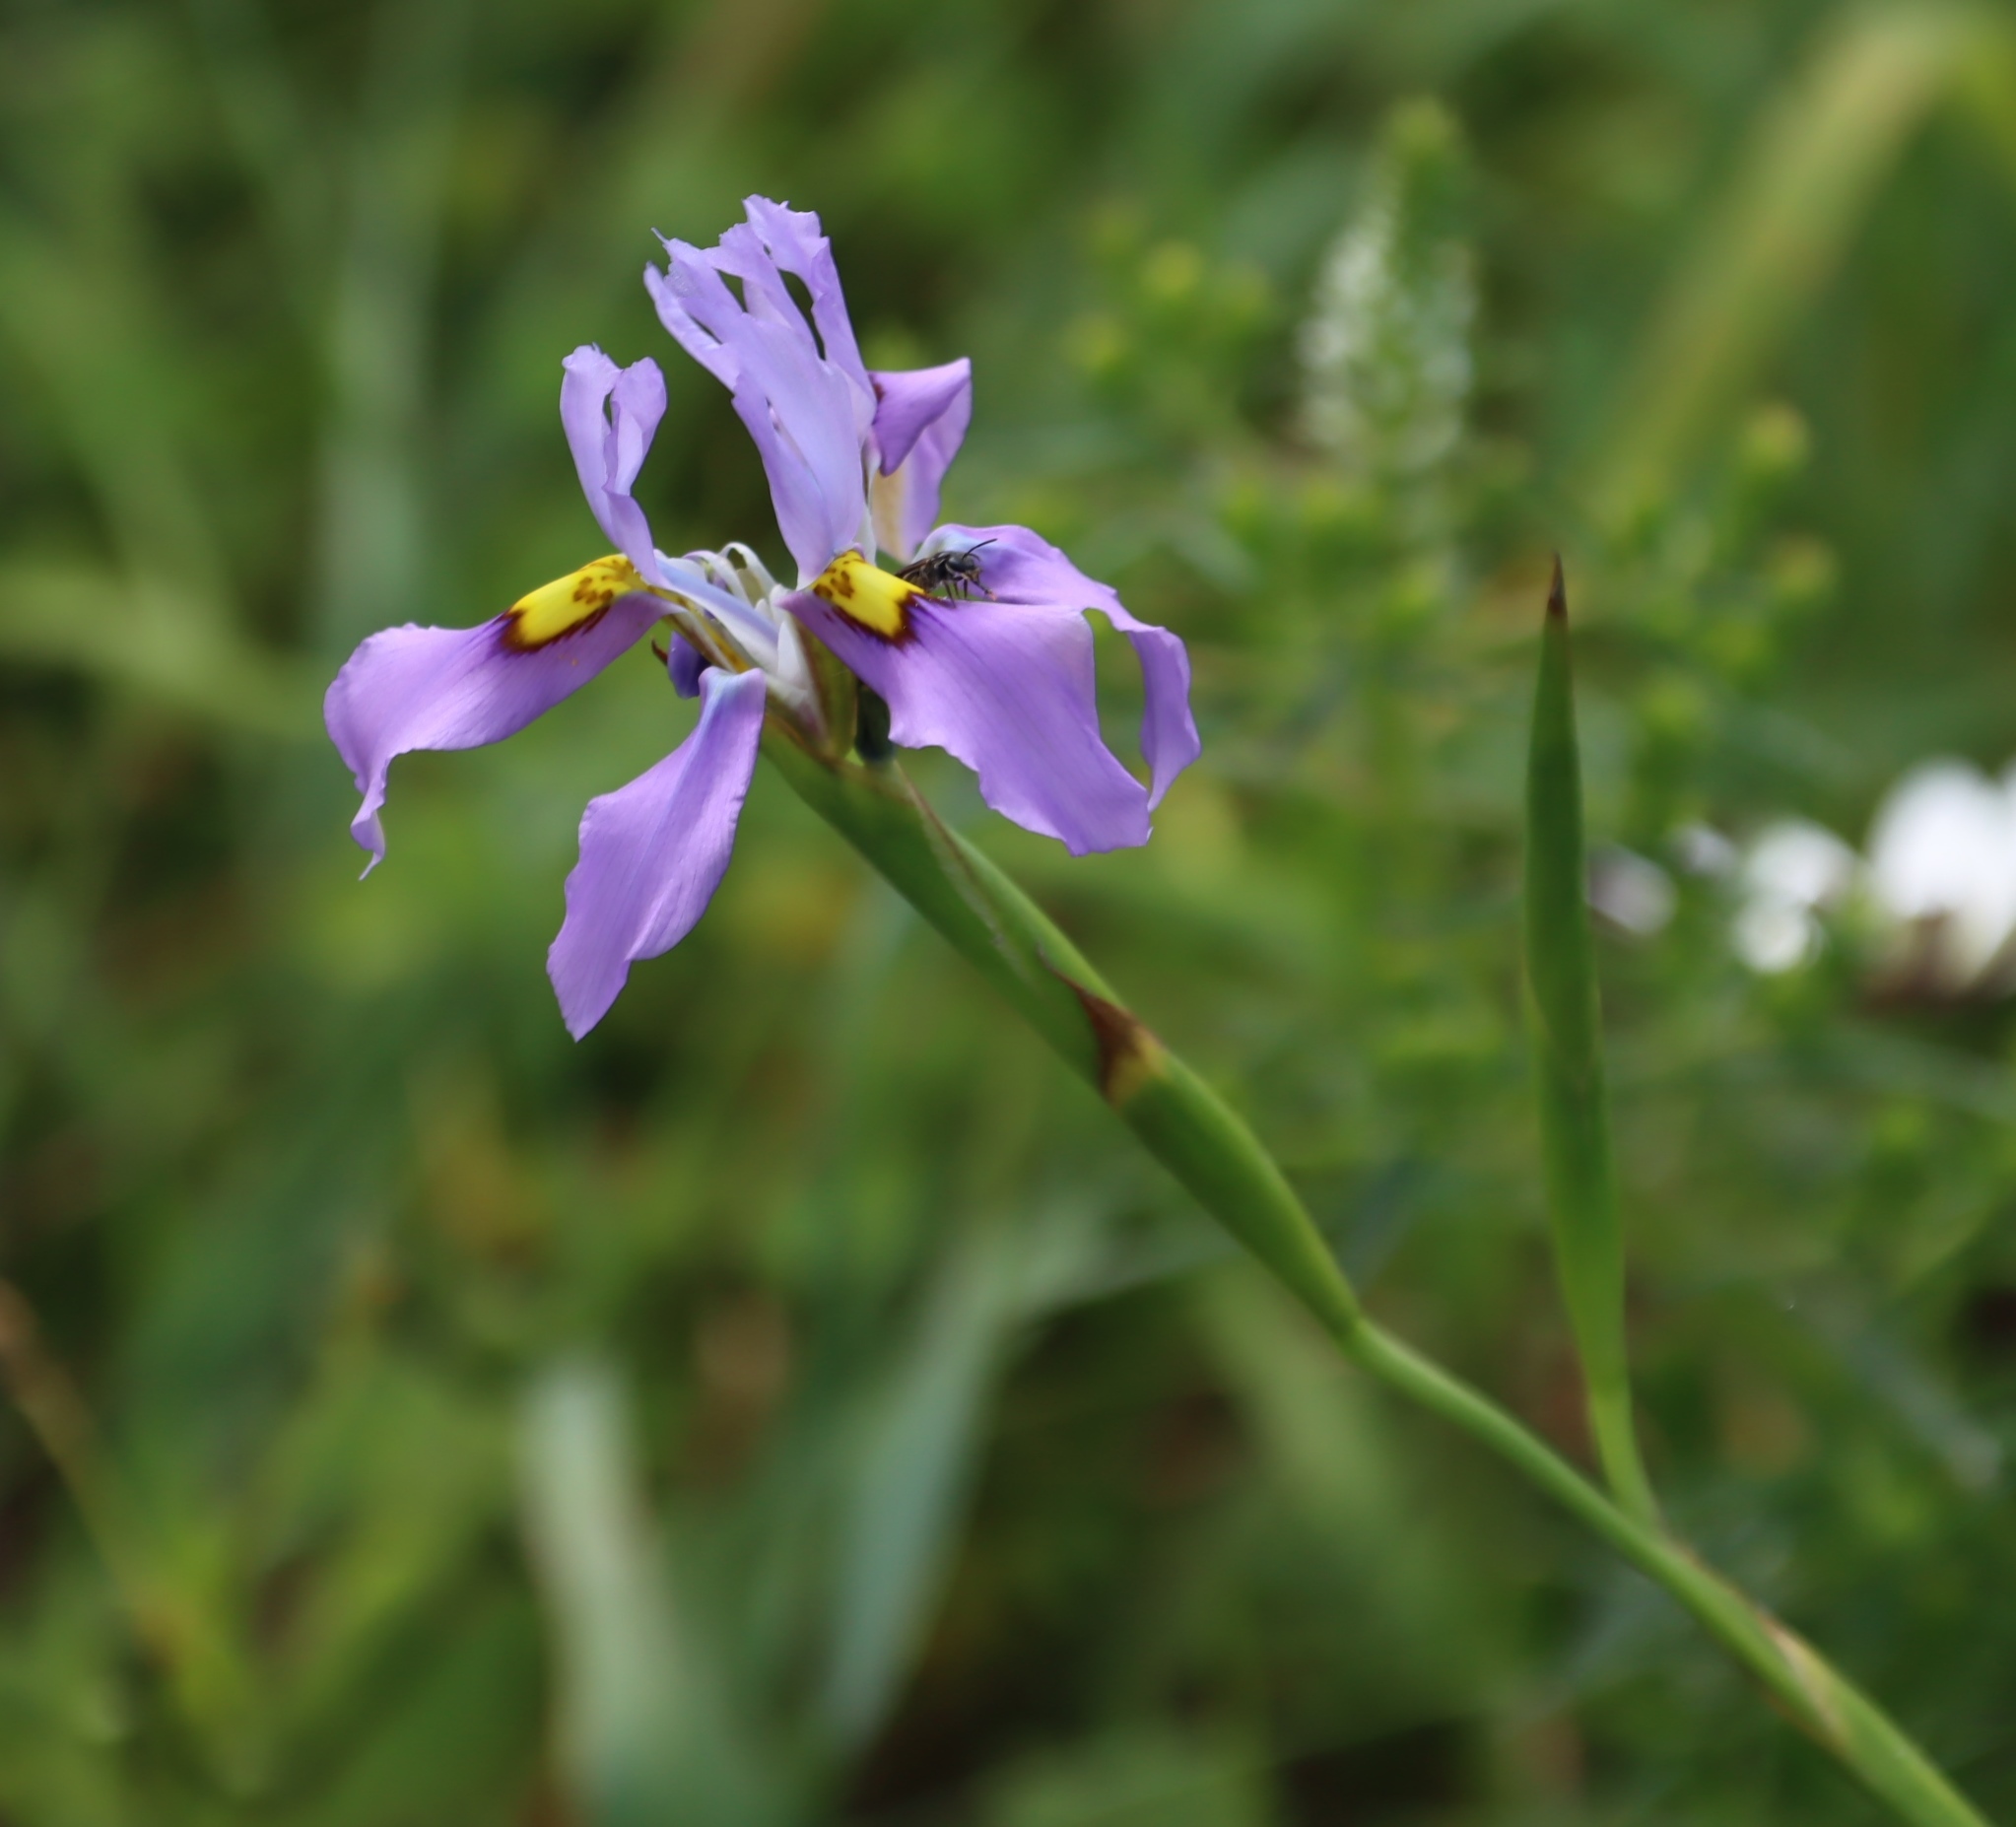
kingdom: Plantae
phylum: Tracheophyta
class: Liliopsida
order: Asparagales
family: Iridaceae
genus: Moraea
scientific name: Moraea fugax
